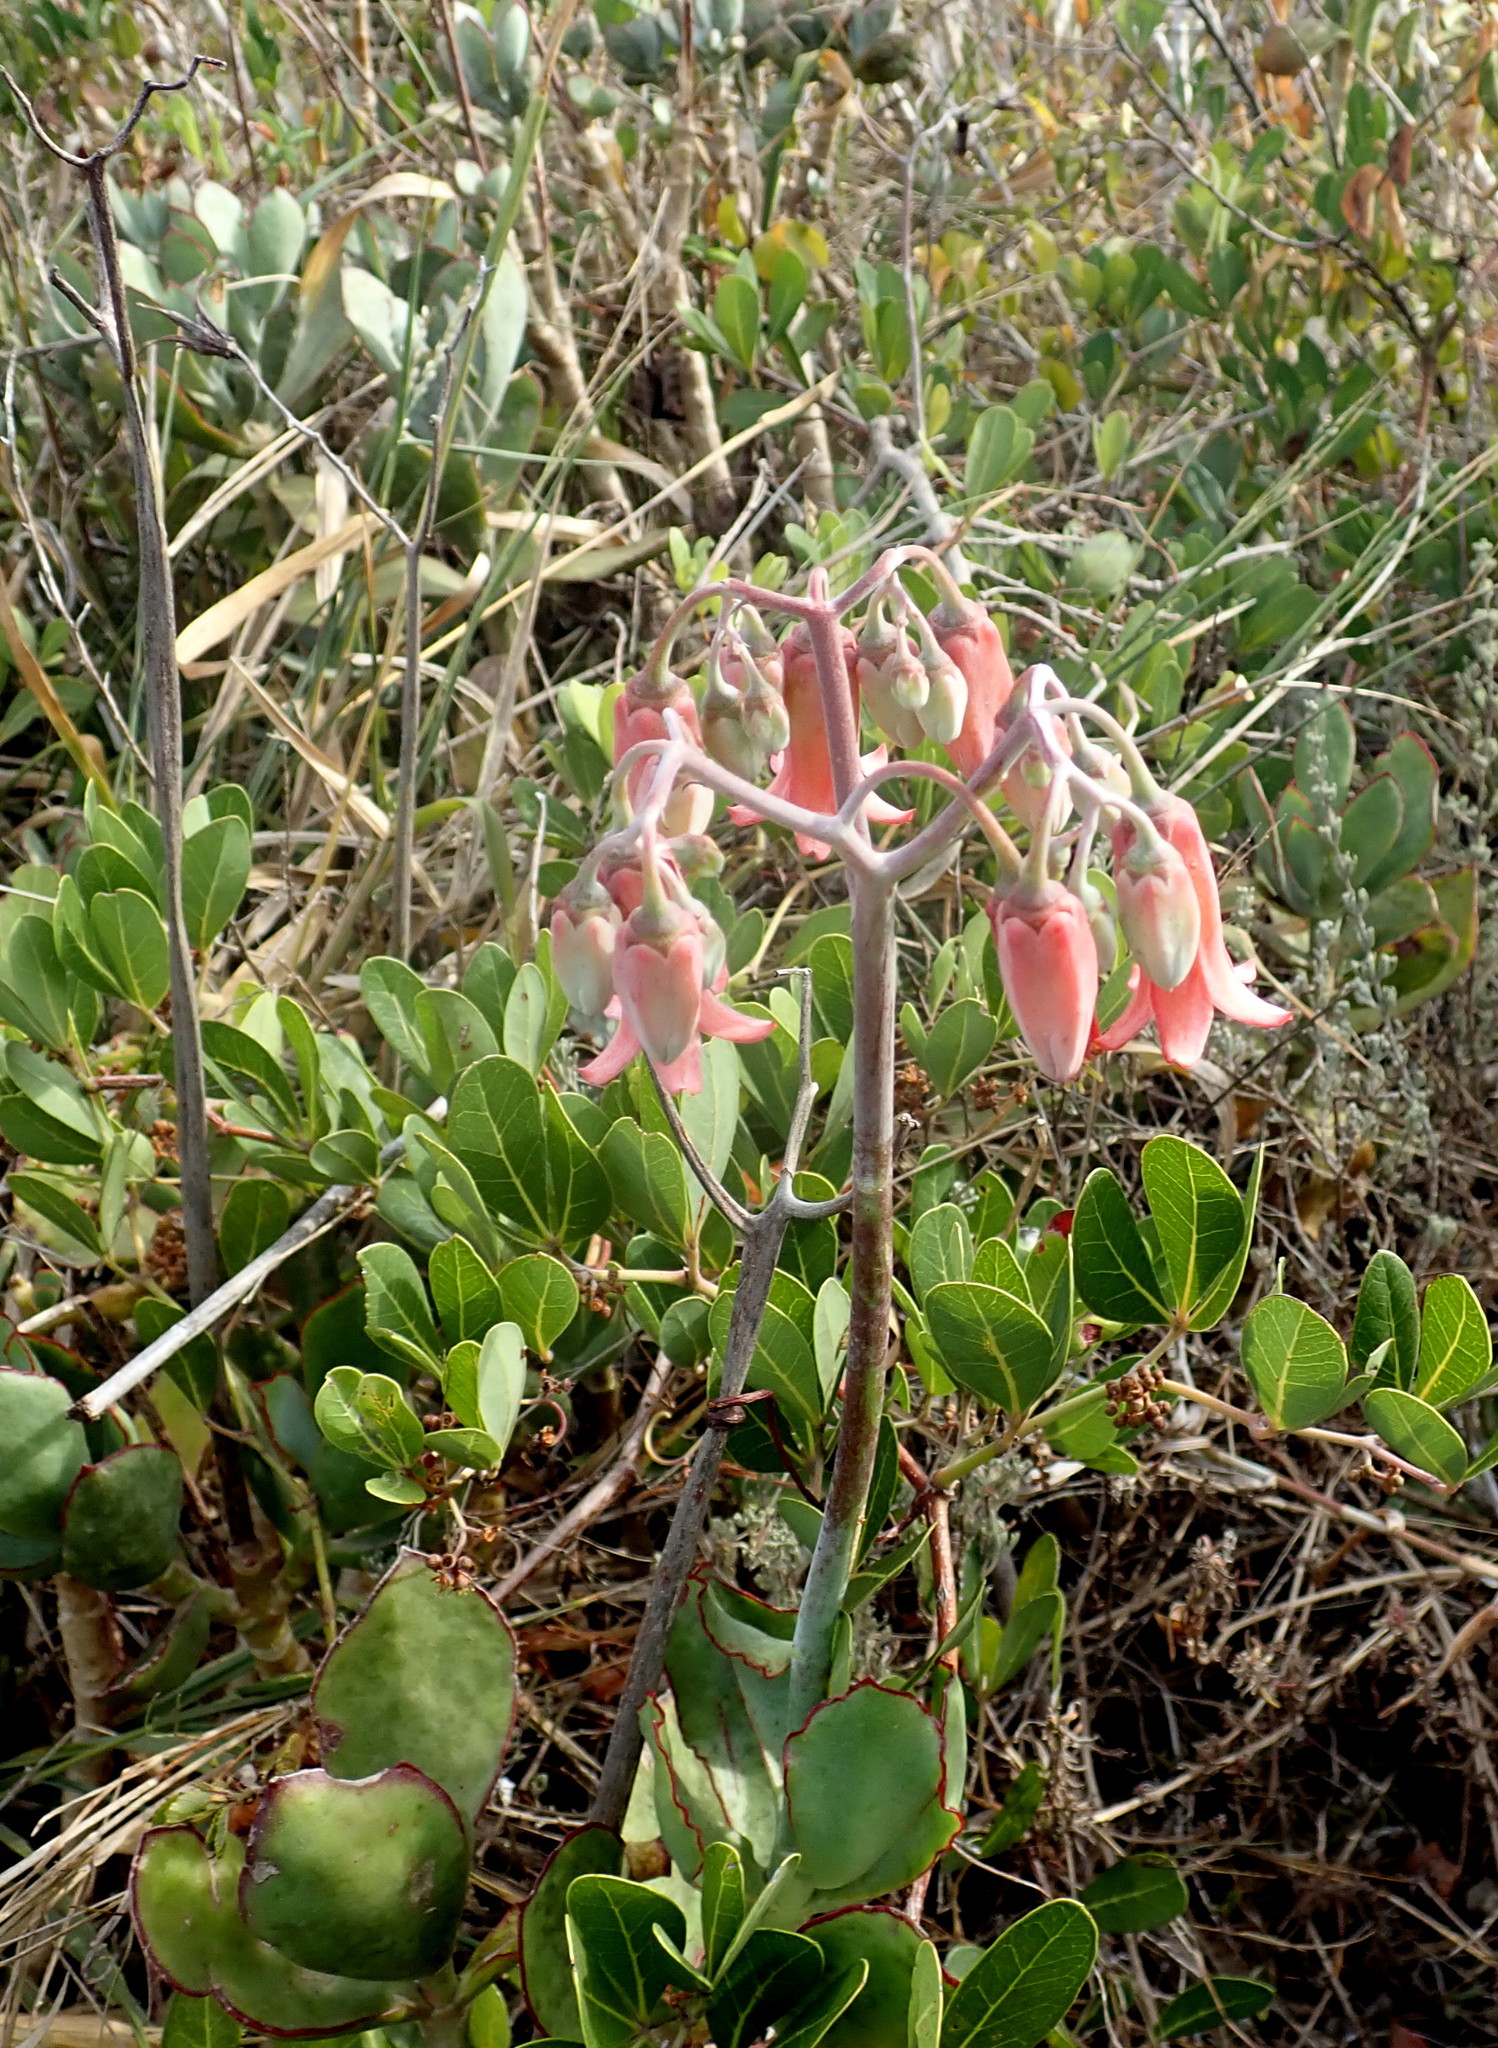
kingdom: Plantae
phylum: Tracheophyta
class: Magnoliopsida
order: Saxifragales
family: Crassulaceae
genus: Cotyledon
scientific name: Cotyledon orbiculata
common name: Pig's ear
